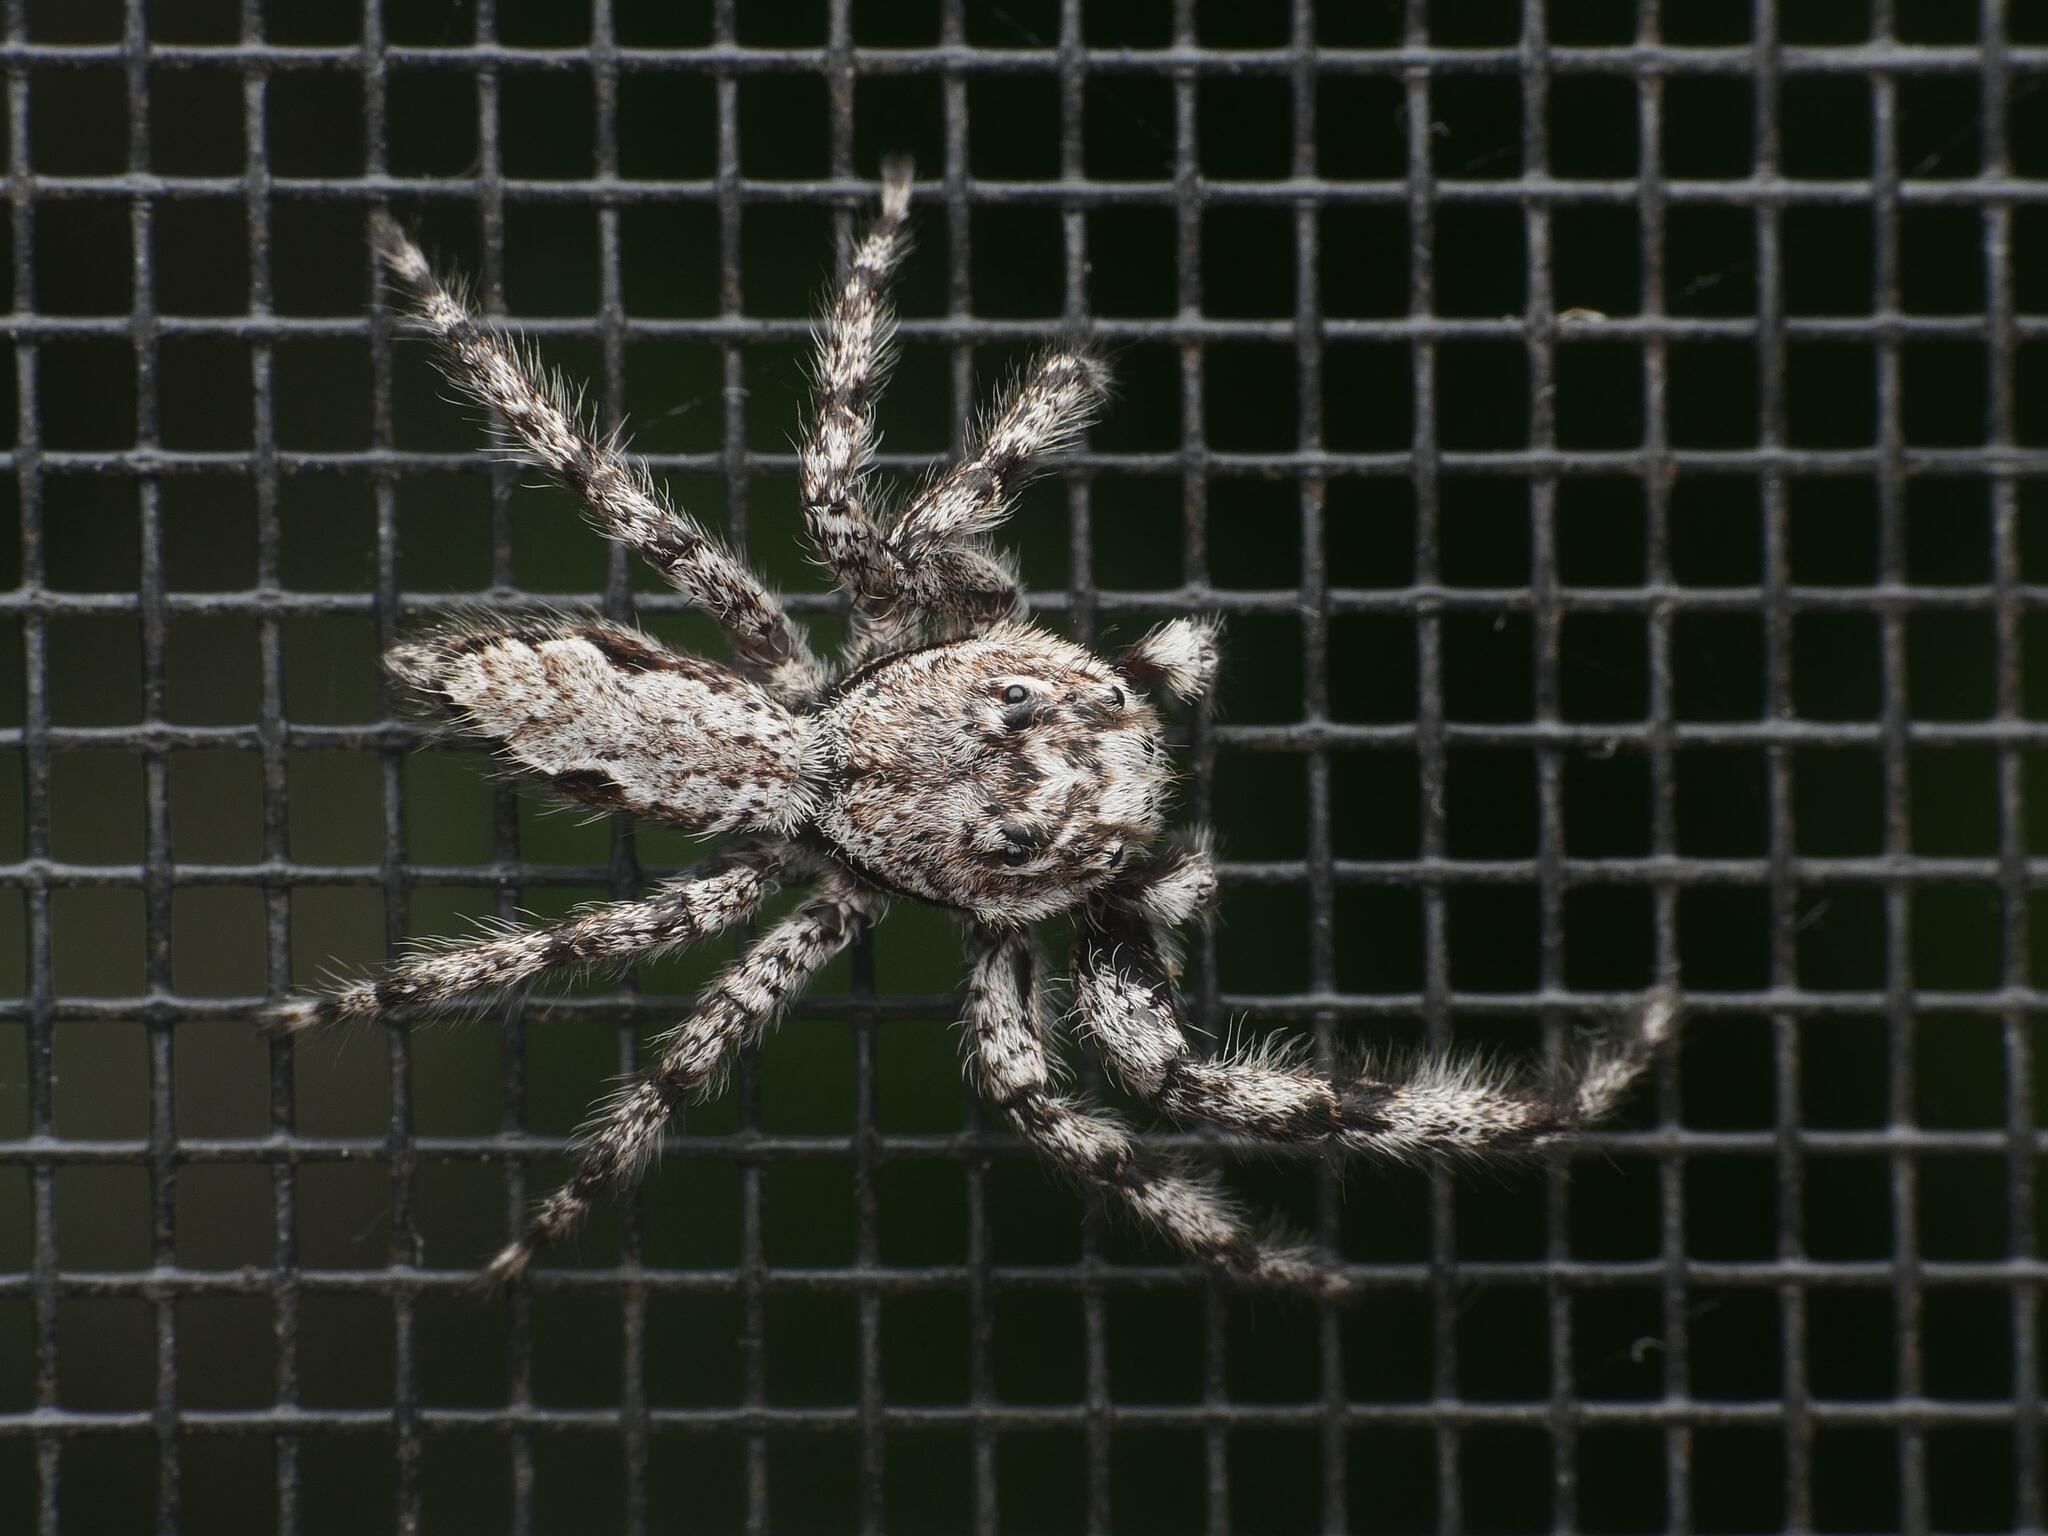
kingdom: Animalia
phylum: Arthropoda
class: Arachnida
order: Araneae
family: Salticidae
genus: Platycryptus
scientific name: Platycryptus undatus
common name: Tan jumping spider
